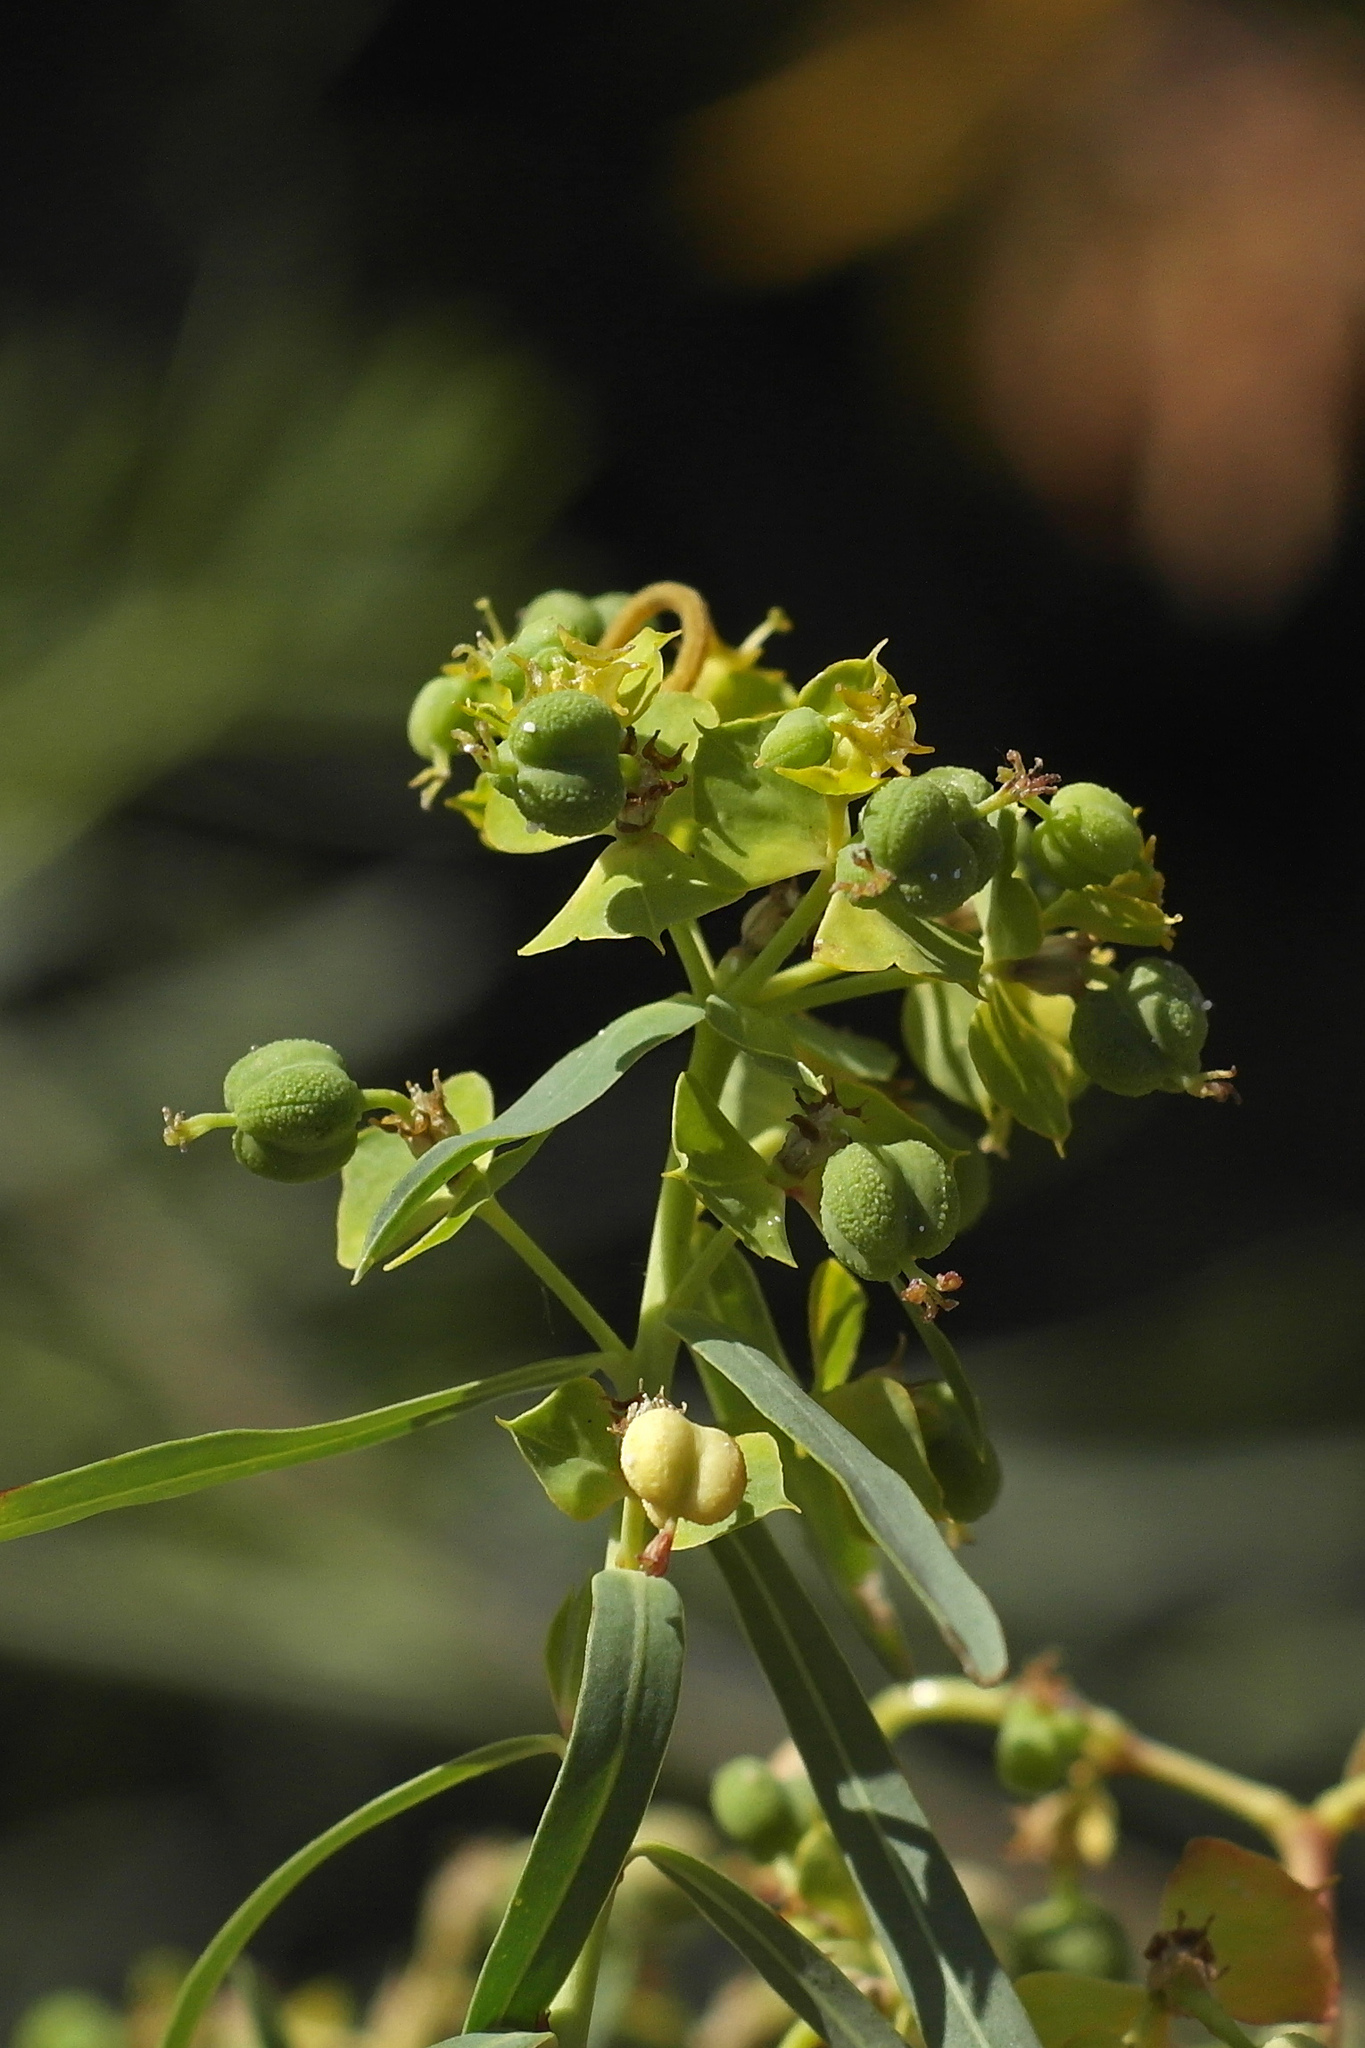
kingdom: Plantae
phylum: Tracheophyta
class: Magnoliopsida
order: Malpighiales
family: Euphorbiaceae
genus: Euphorbia
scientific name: Euphorbia virgata
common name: Leafy spurge
